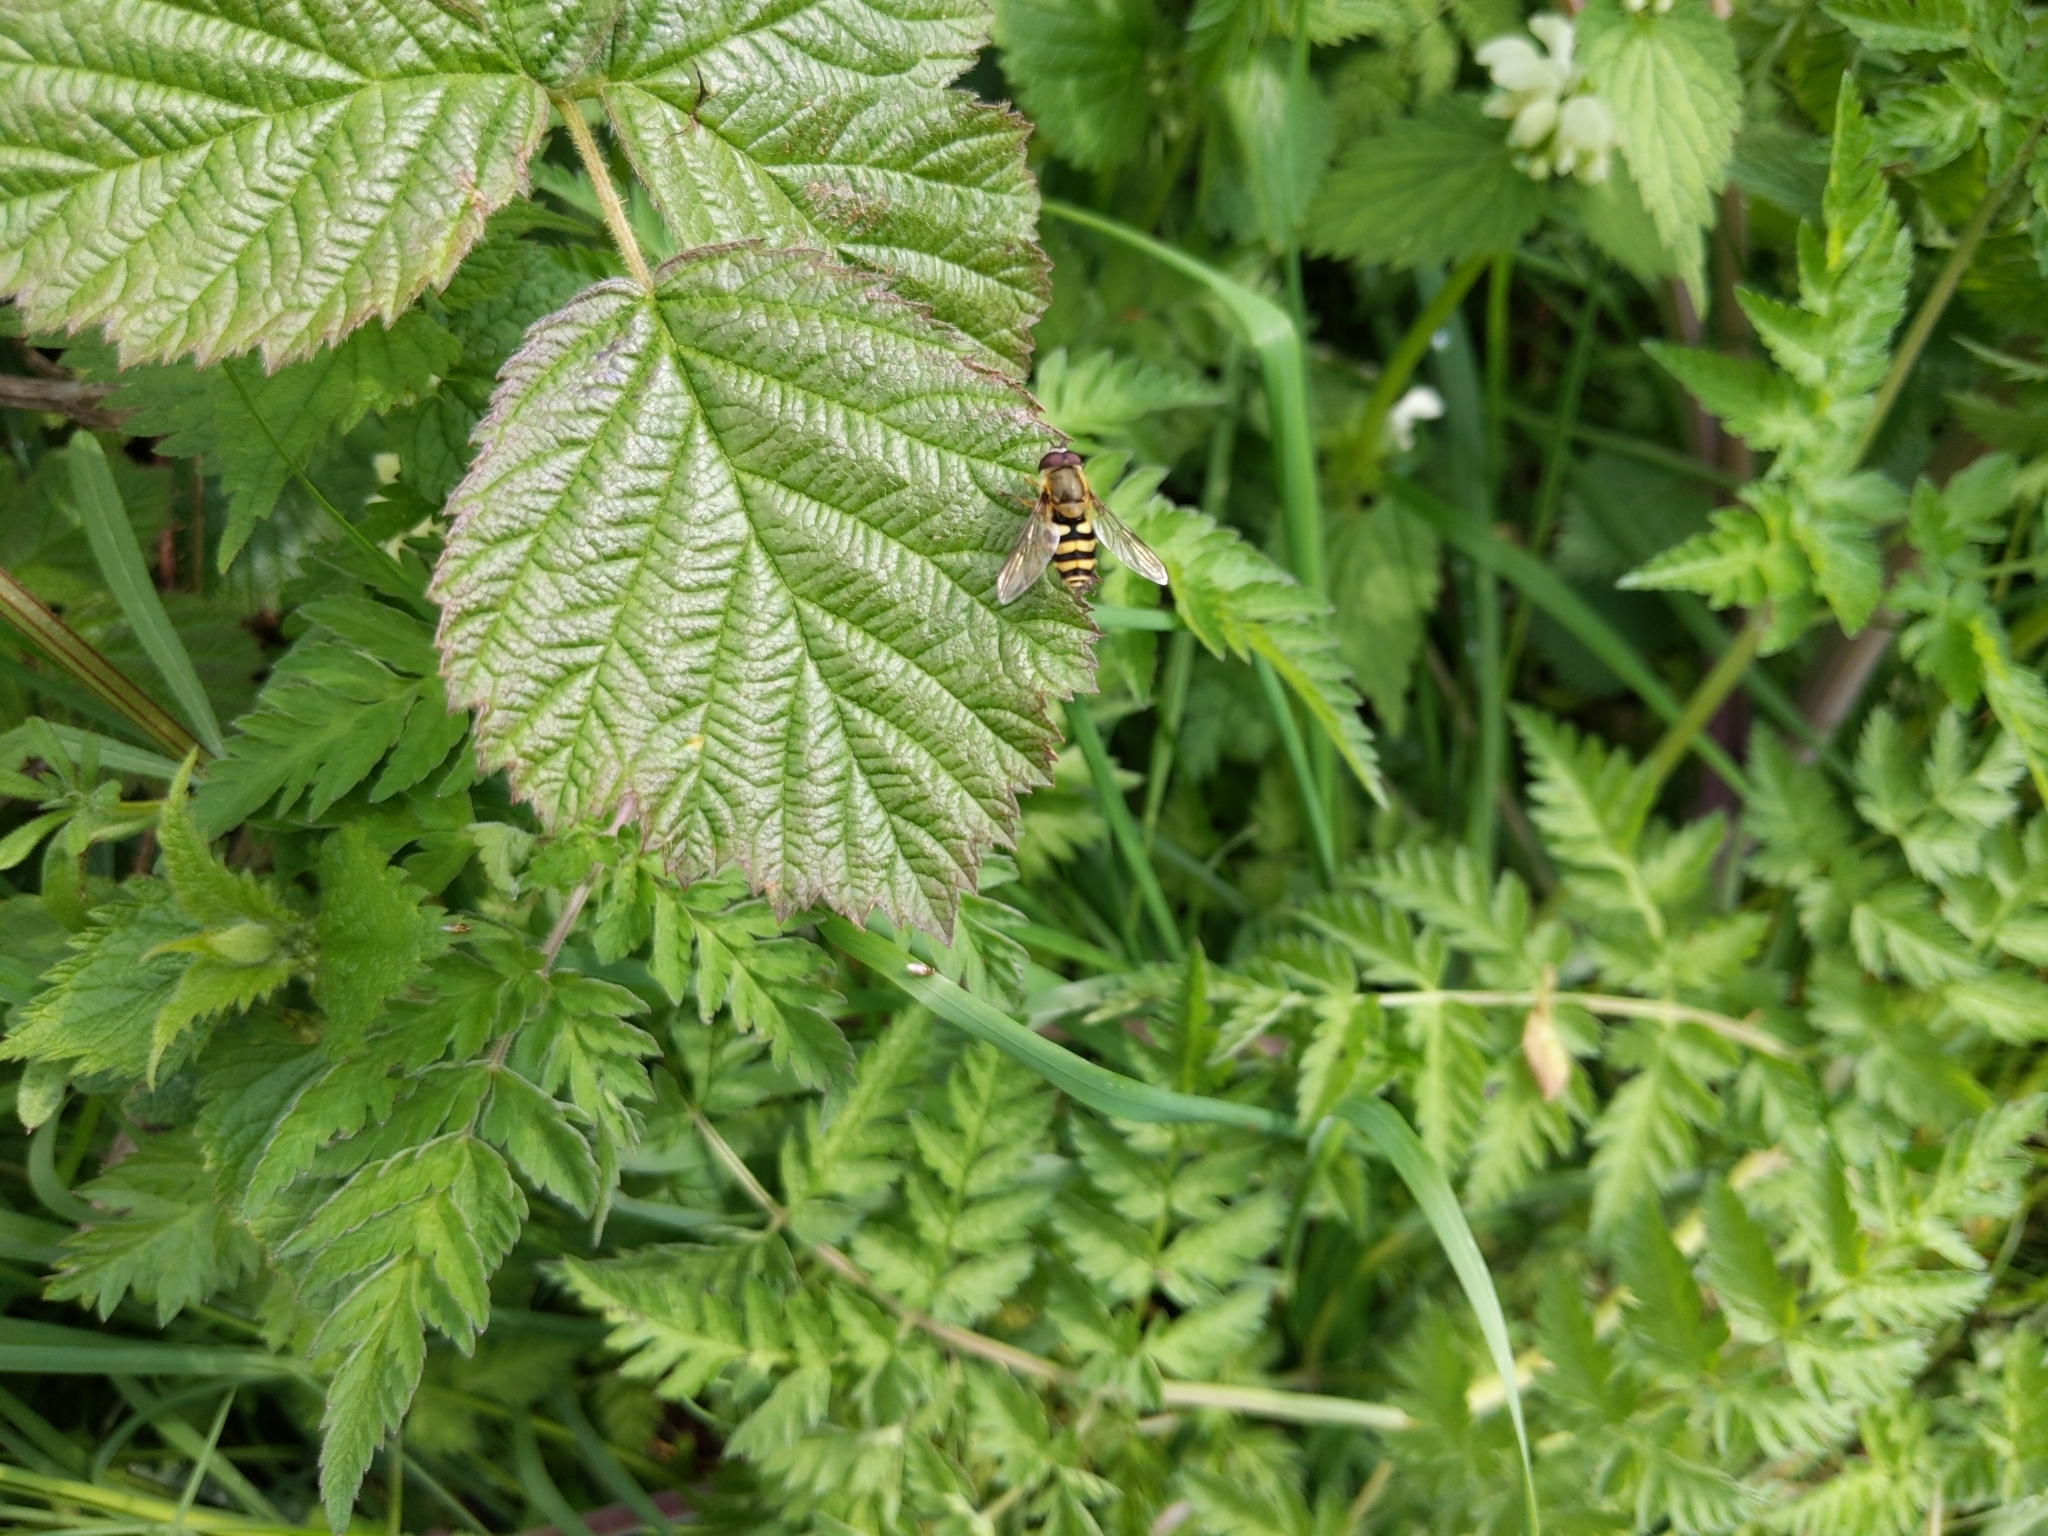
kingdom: Animalia
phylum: Arthropoda
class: Insecta
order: Diptera
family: Syrphidae
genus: Syrphus
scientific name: Syrphus
